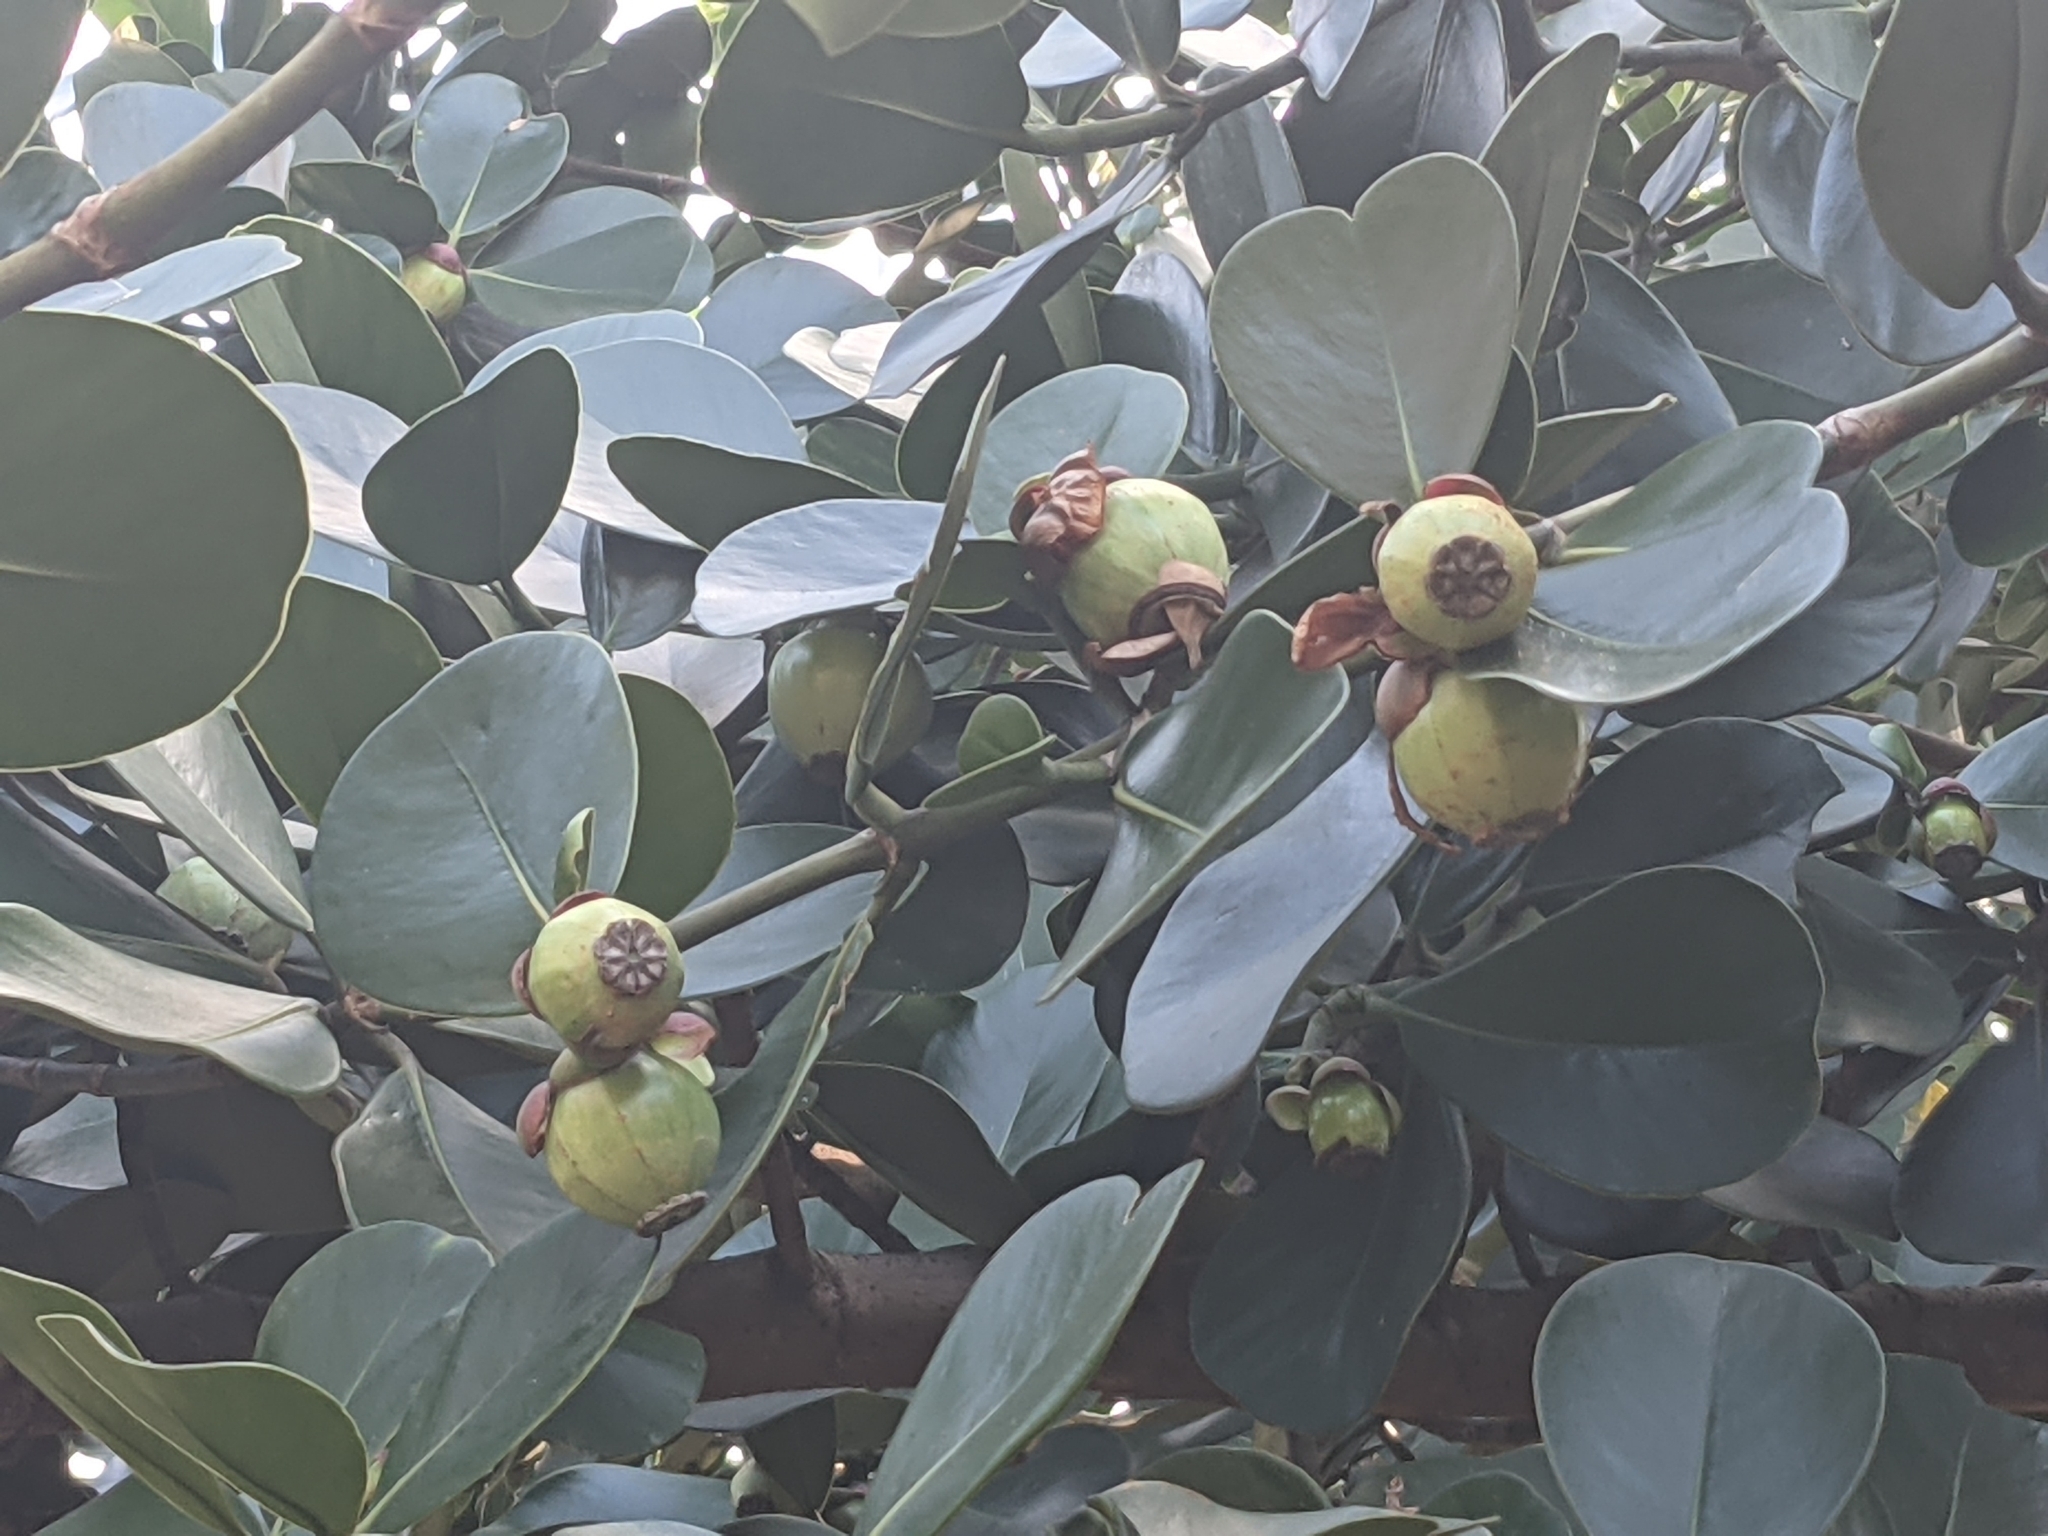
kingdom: Plantae
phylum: Tracheophyta
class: Magnoliopsida
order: Malpighiales
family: Clusiaceae
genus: Clusia
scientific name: Clusia rosea
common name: Scotch attorney
